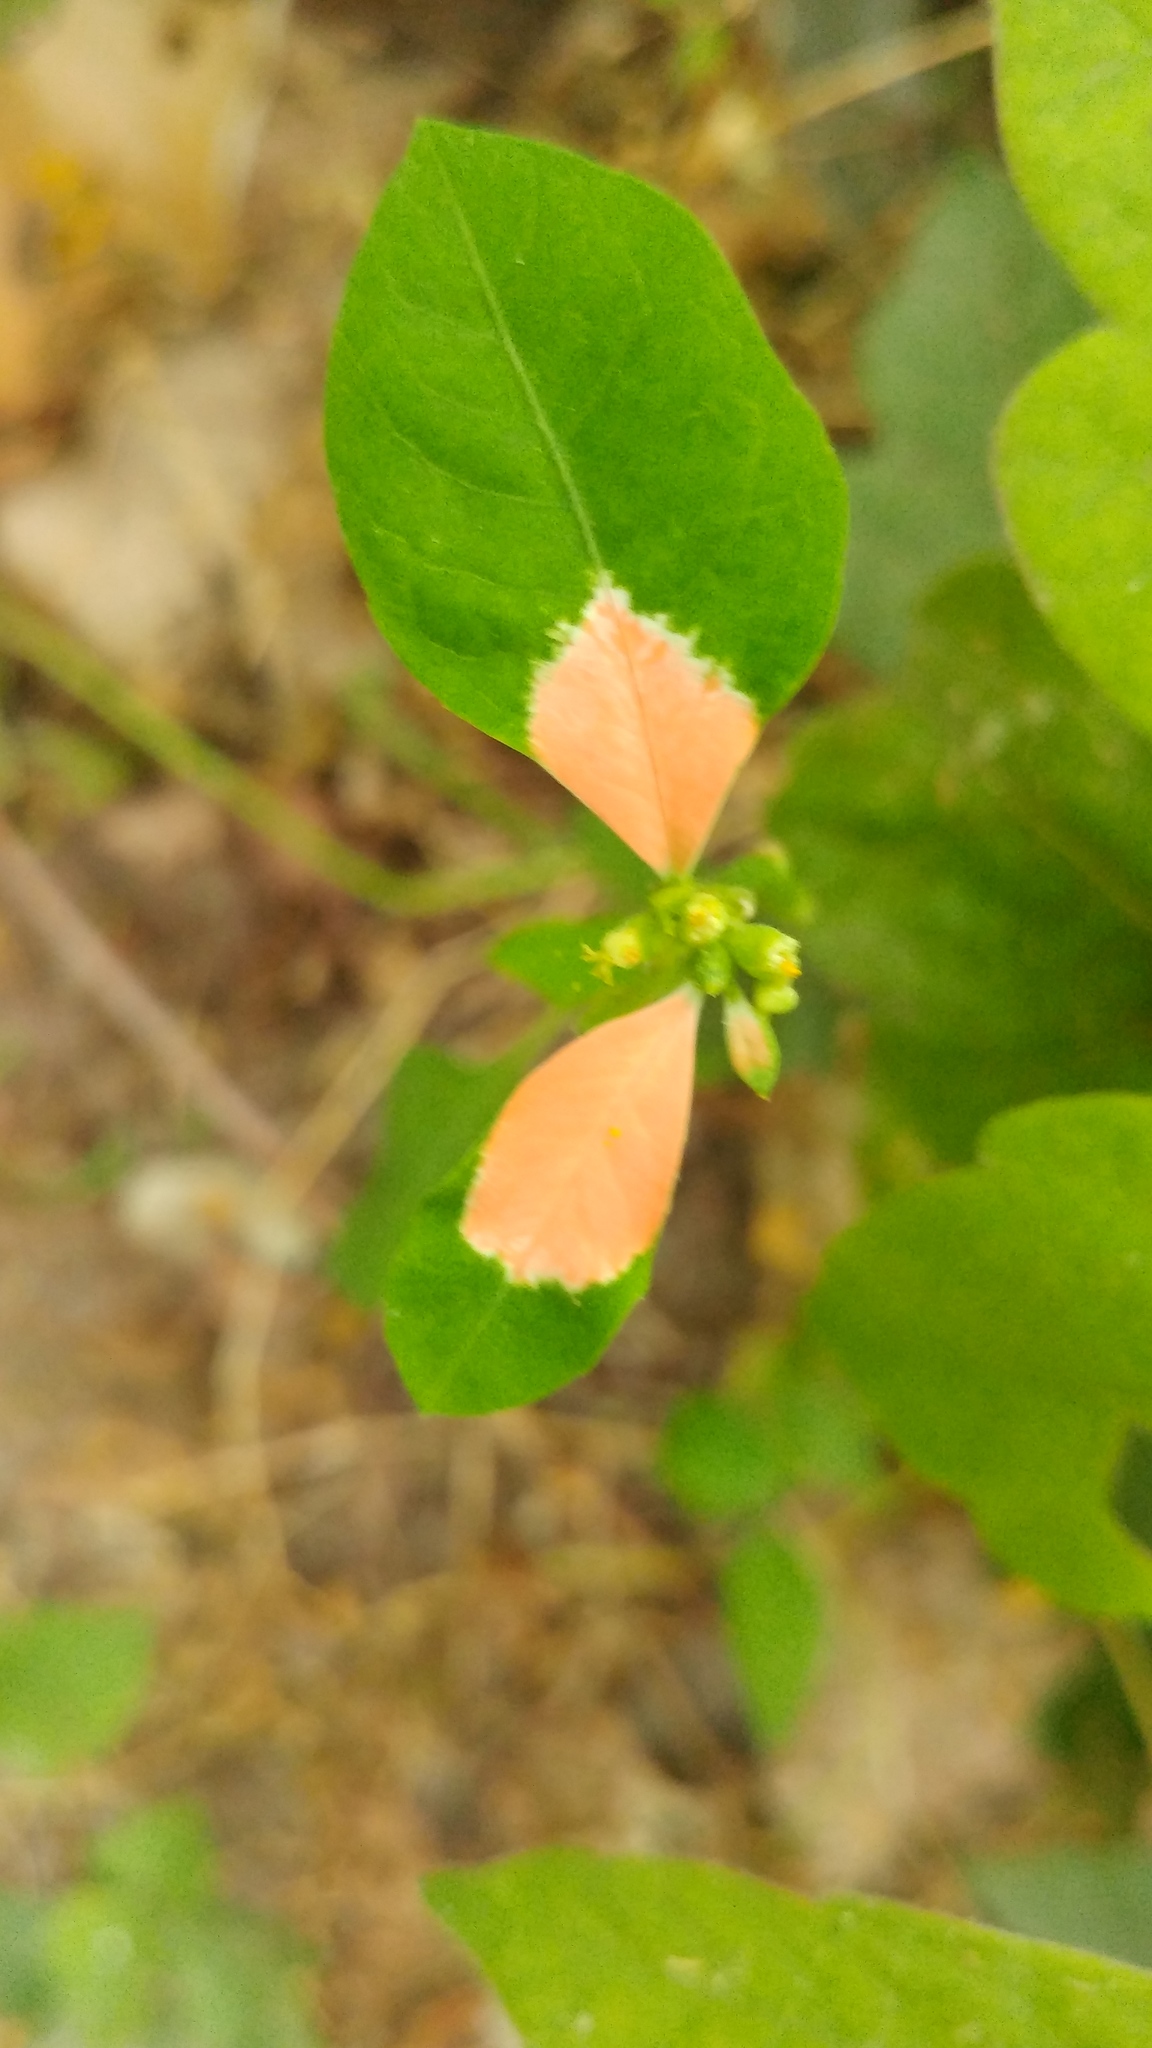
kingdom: Plantae
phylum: Tracheophyta
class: Magnoliopsida
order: Malpighiales
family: Euphorbiaceae
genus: Euphorbia
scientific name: Euphorbia heterophylla
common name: Mexican fireplant
